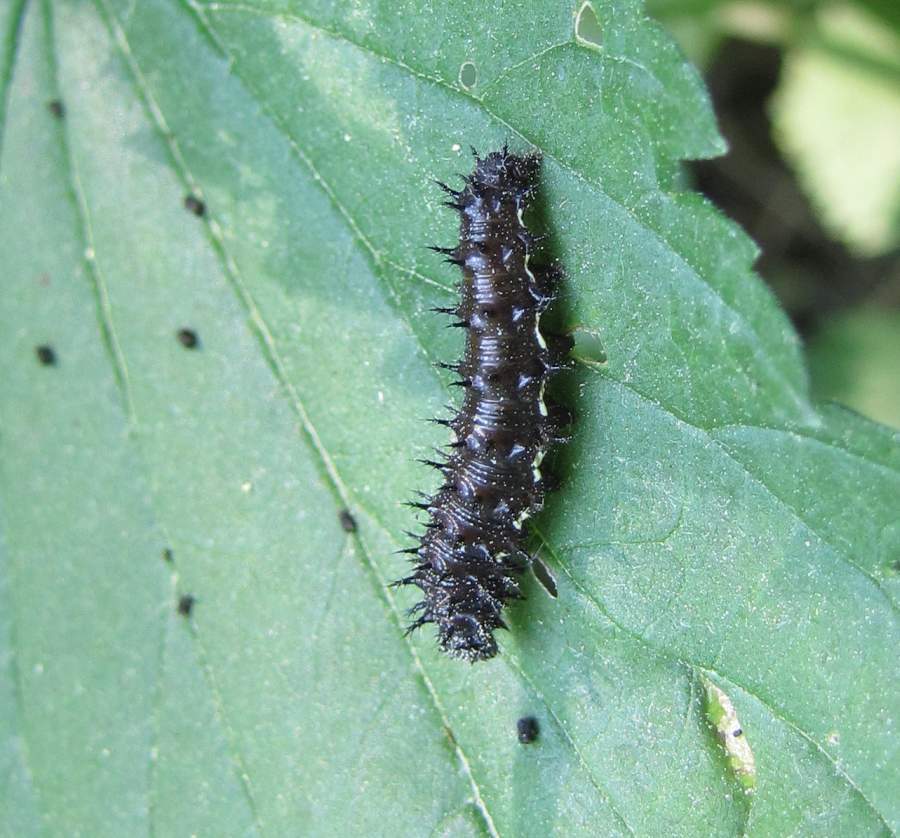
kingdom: Animalia
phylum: Arthropoda
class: Insecta
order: Lepidoptera
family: Nymphalidae
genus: Vanessa
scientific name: Vanessa atalanta
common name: Red admiral
